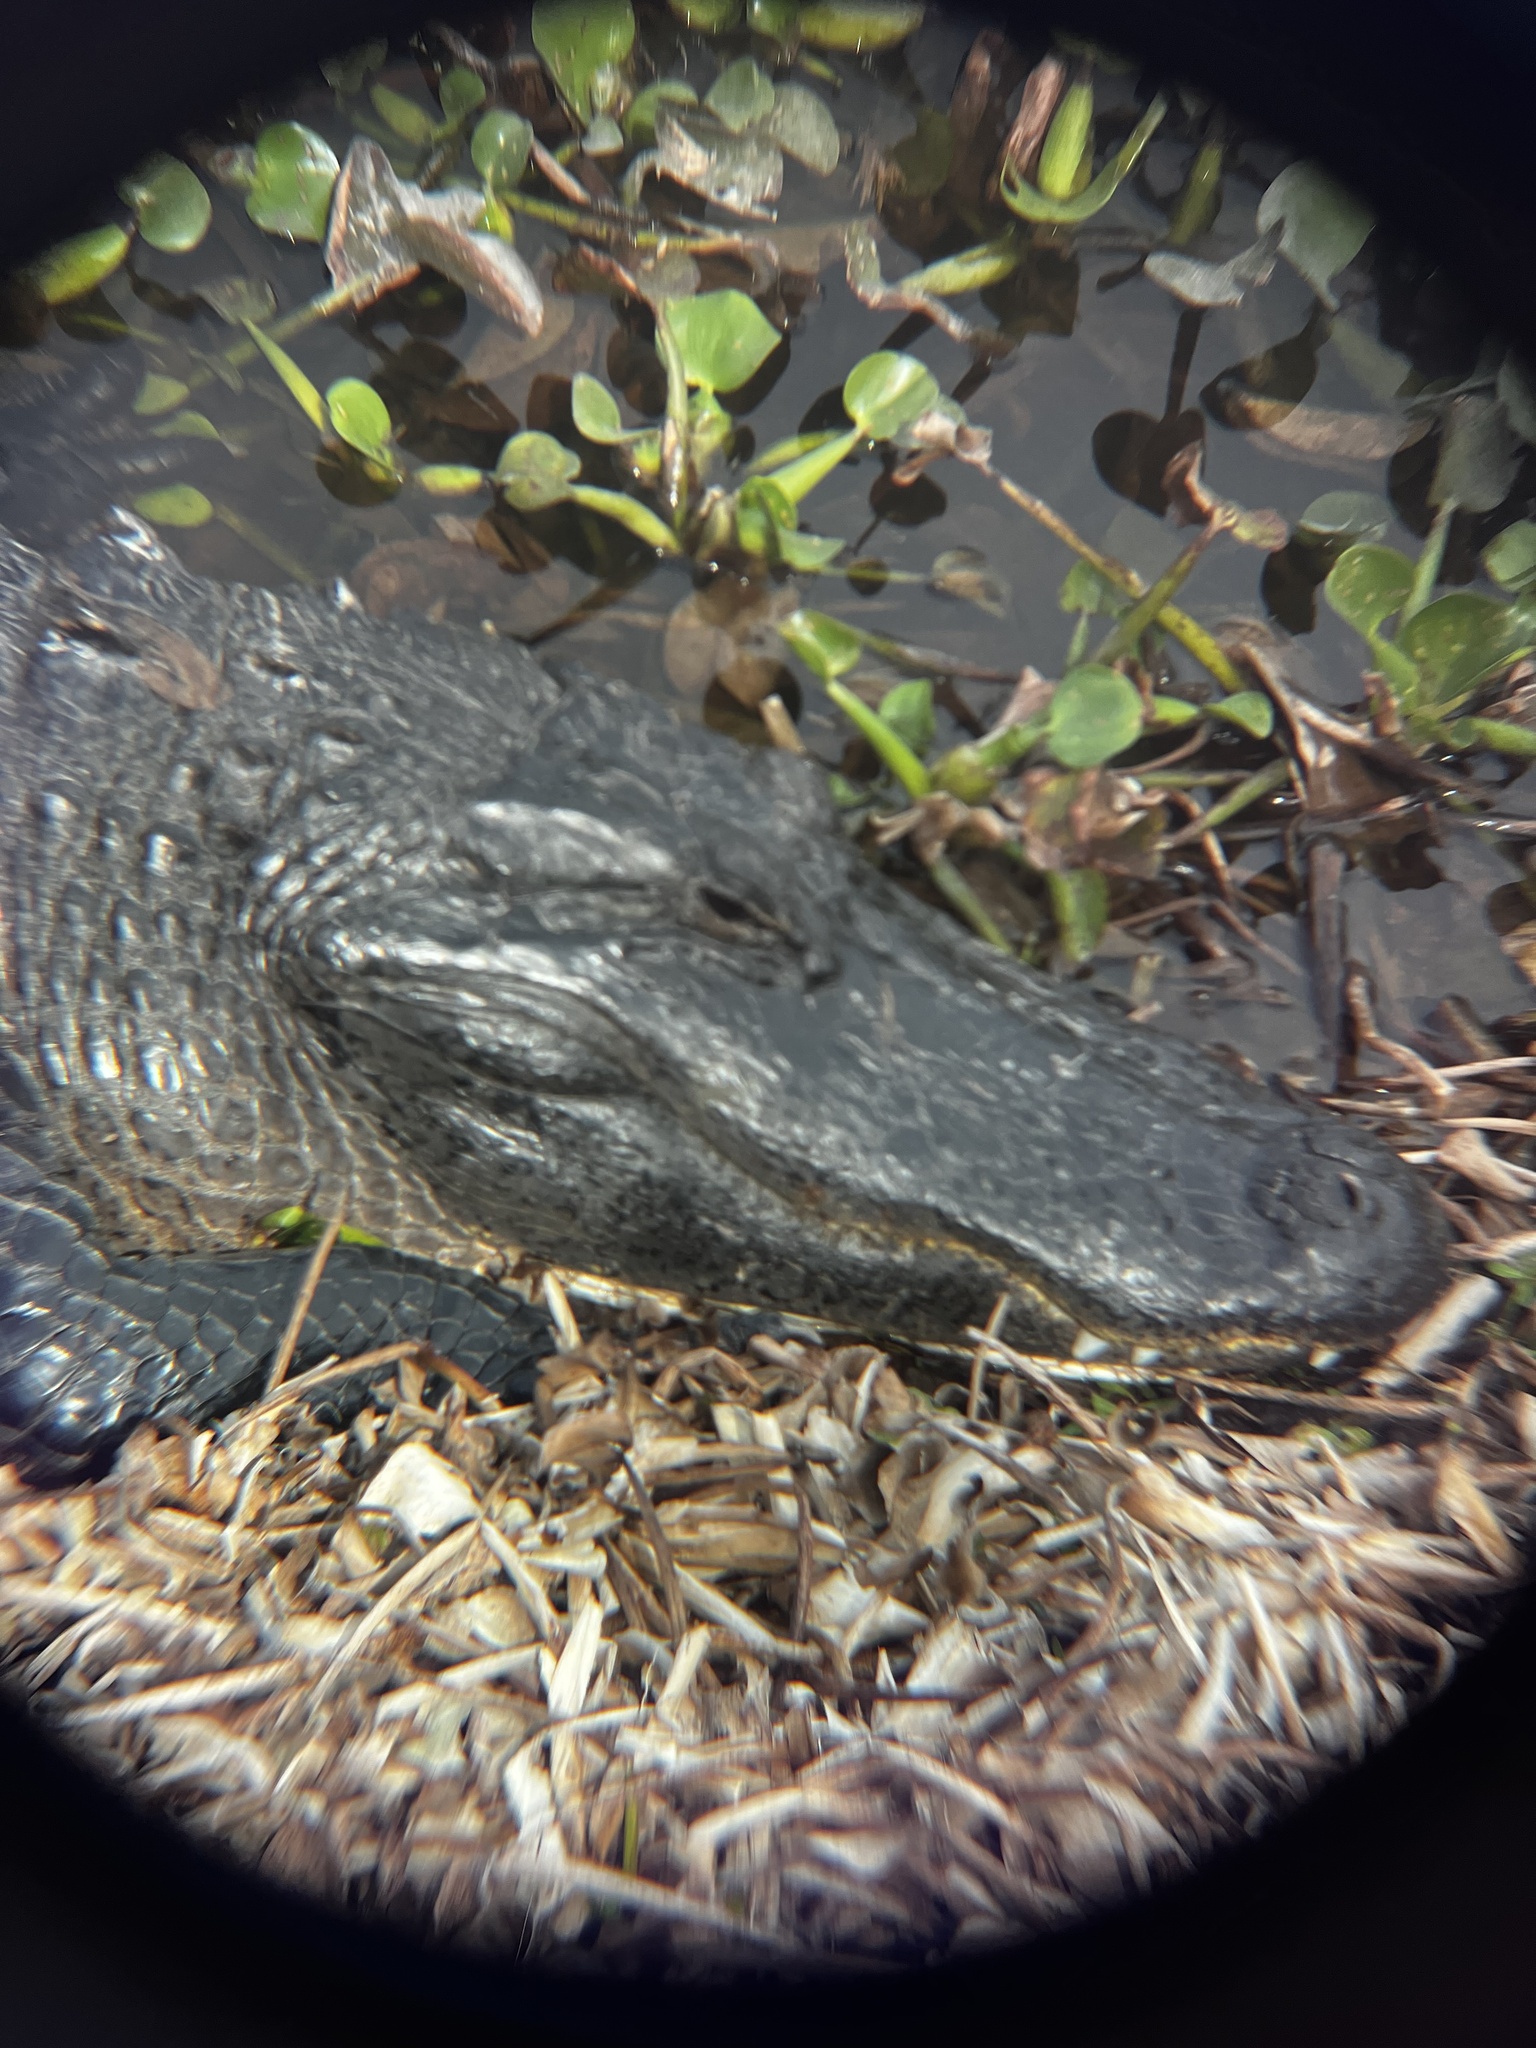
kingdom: Animalia
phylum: Chordata
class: Crocodylia
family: Alligatoridae
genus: Alligator
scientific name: Alligator mississippiensis
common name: American alligator
